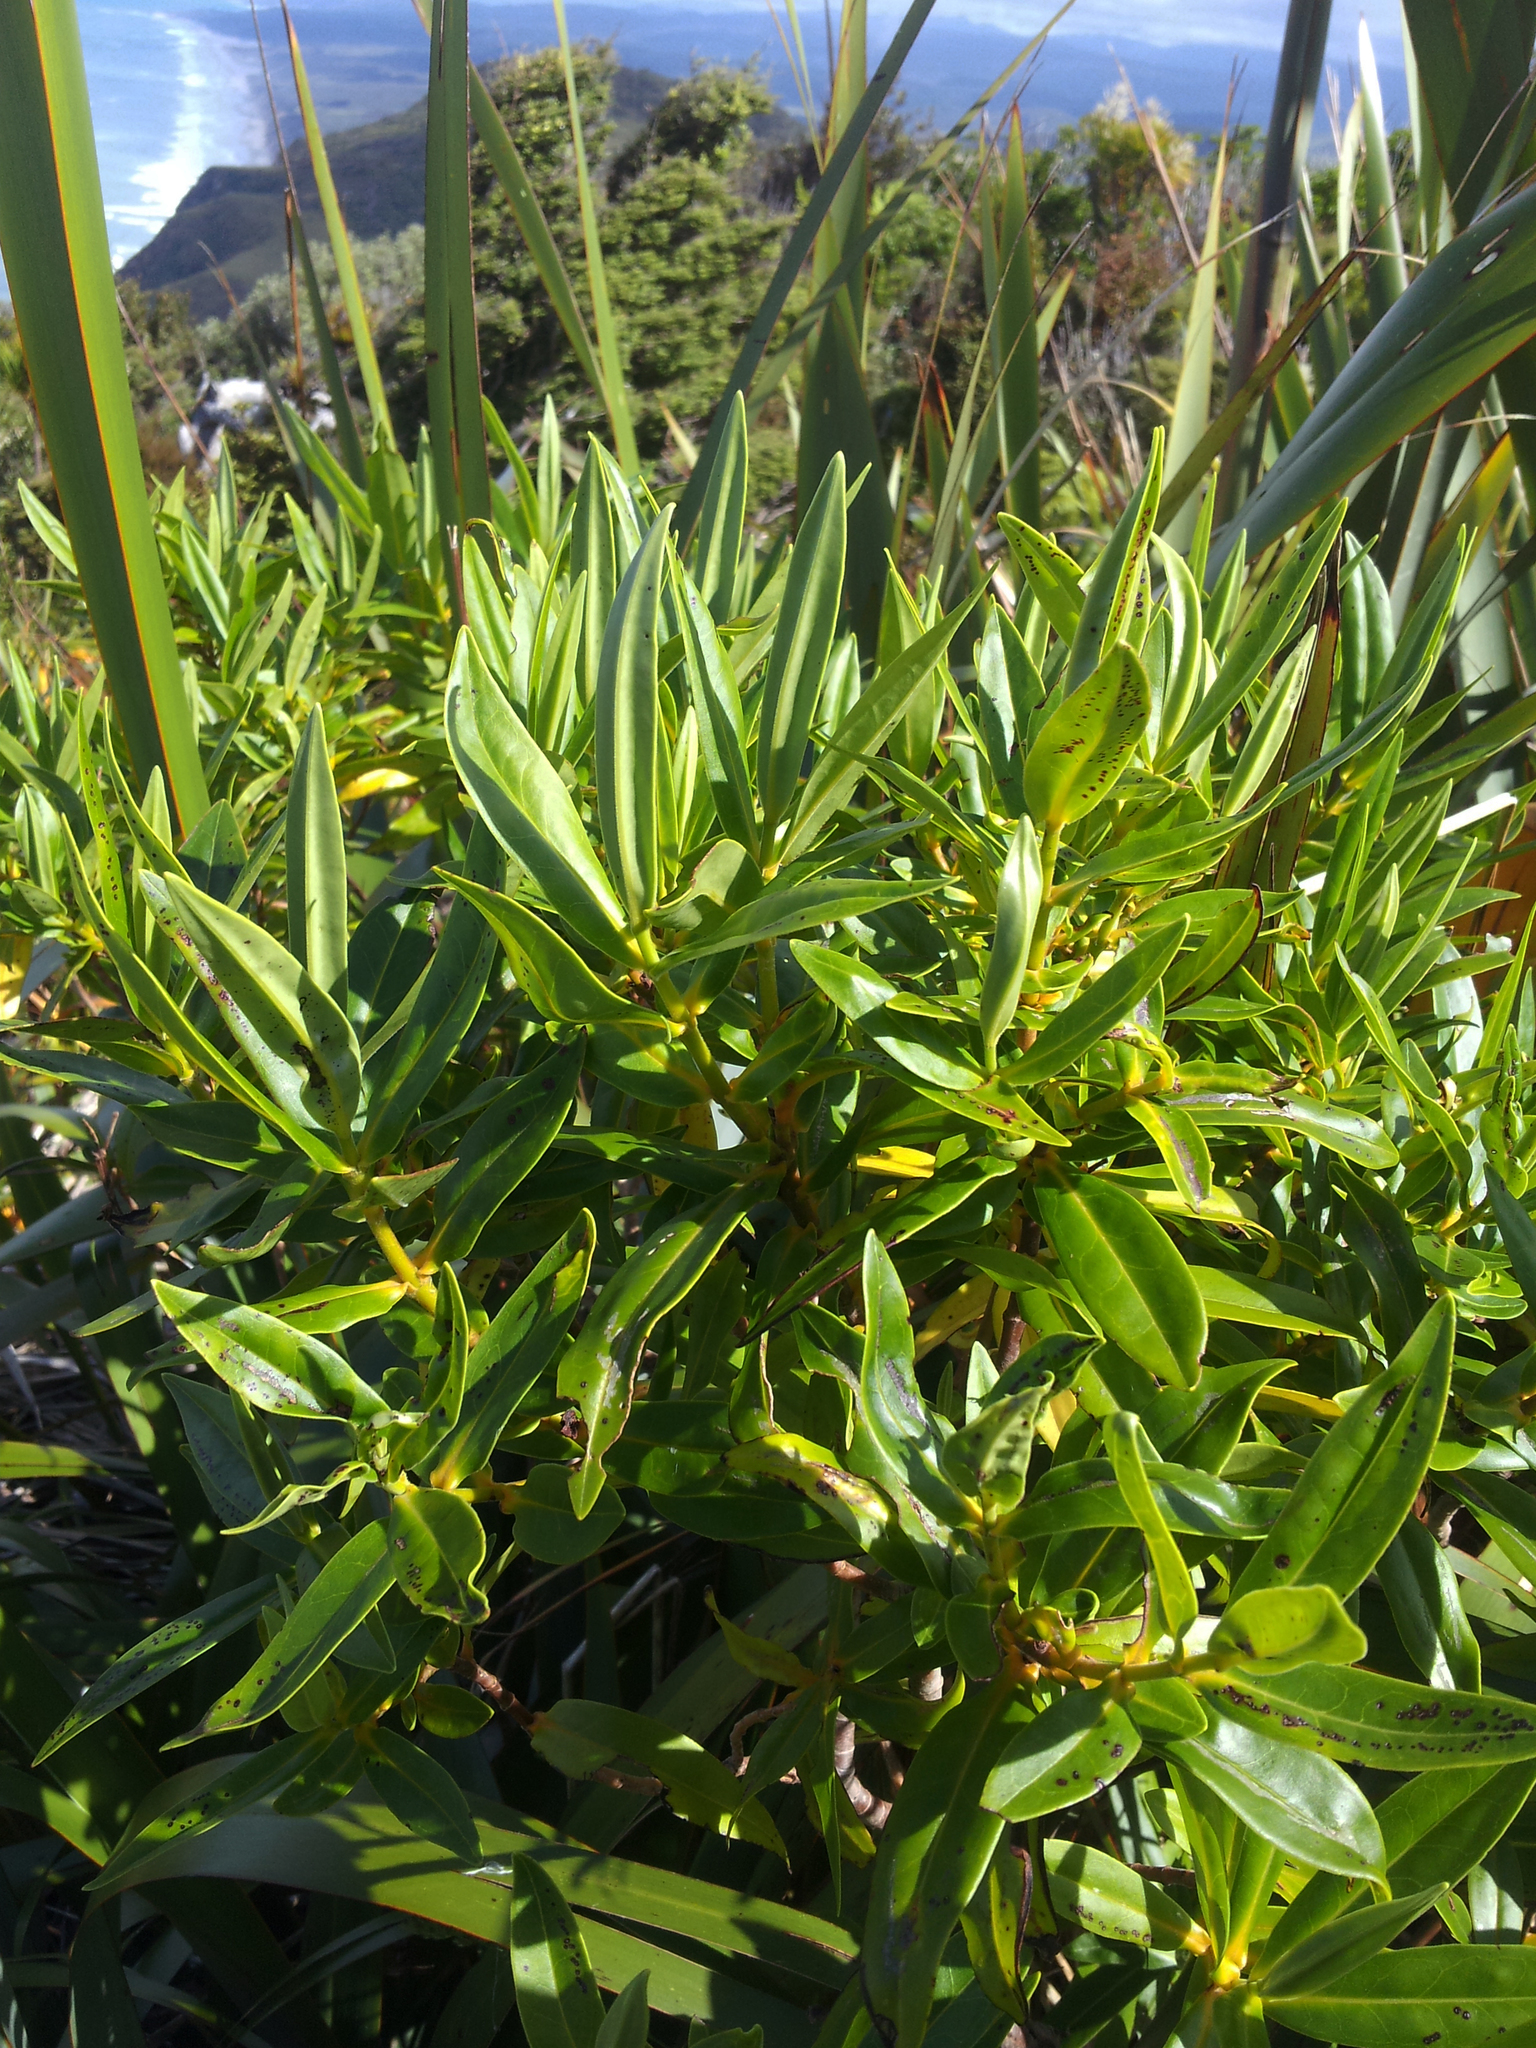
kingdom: Plantae
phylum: Tracheophyta
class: Magnoliopsida
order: Lamiales
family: Plantaginaceae
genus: Veronica
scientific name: Veronica flavida
